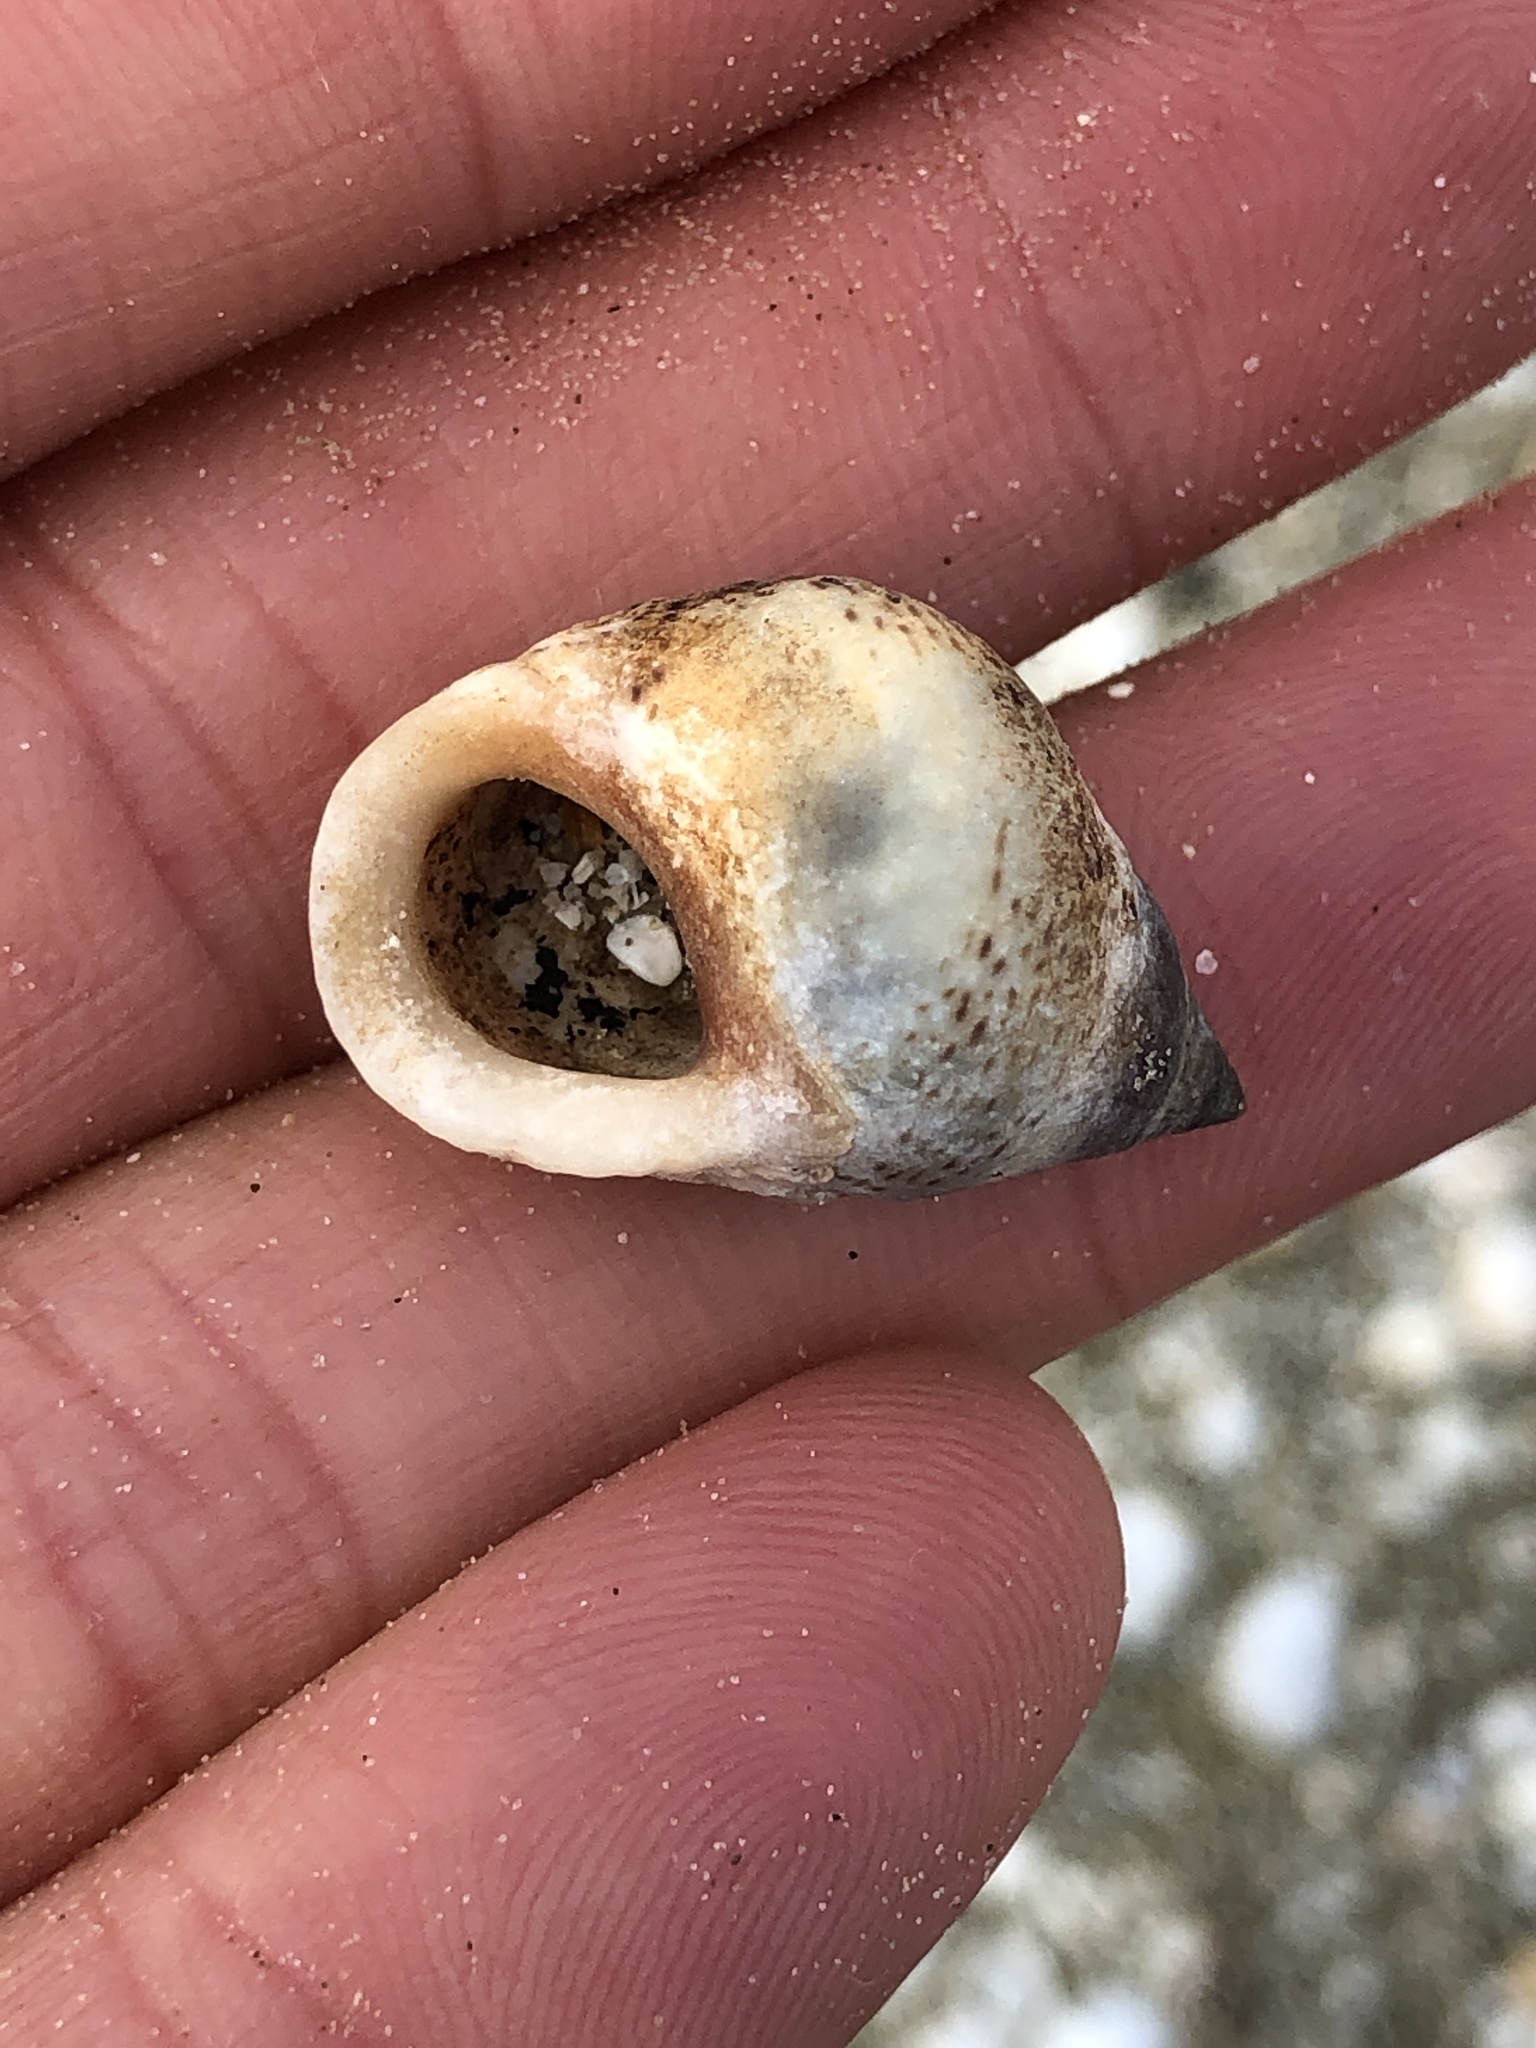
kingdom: Animalia
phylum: Mollusca
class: Gastropoda
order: Littorinimorpha
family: Littorinidae
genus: Littoraria
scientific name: Littoraria irrorata
